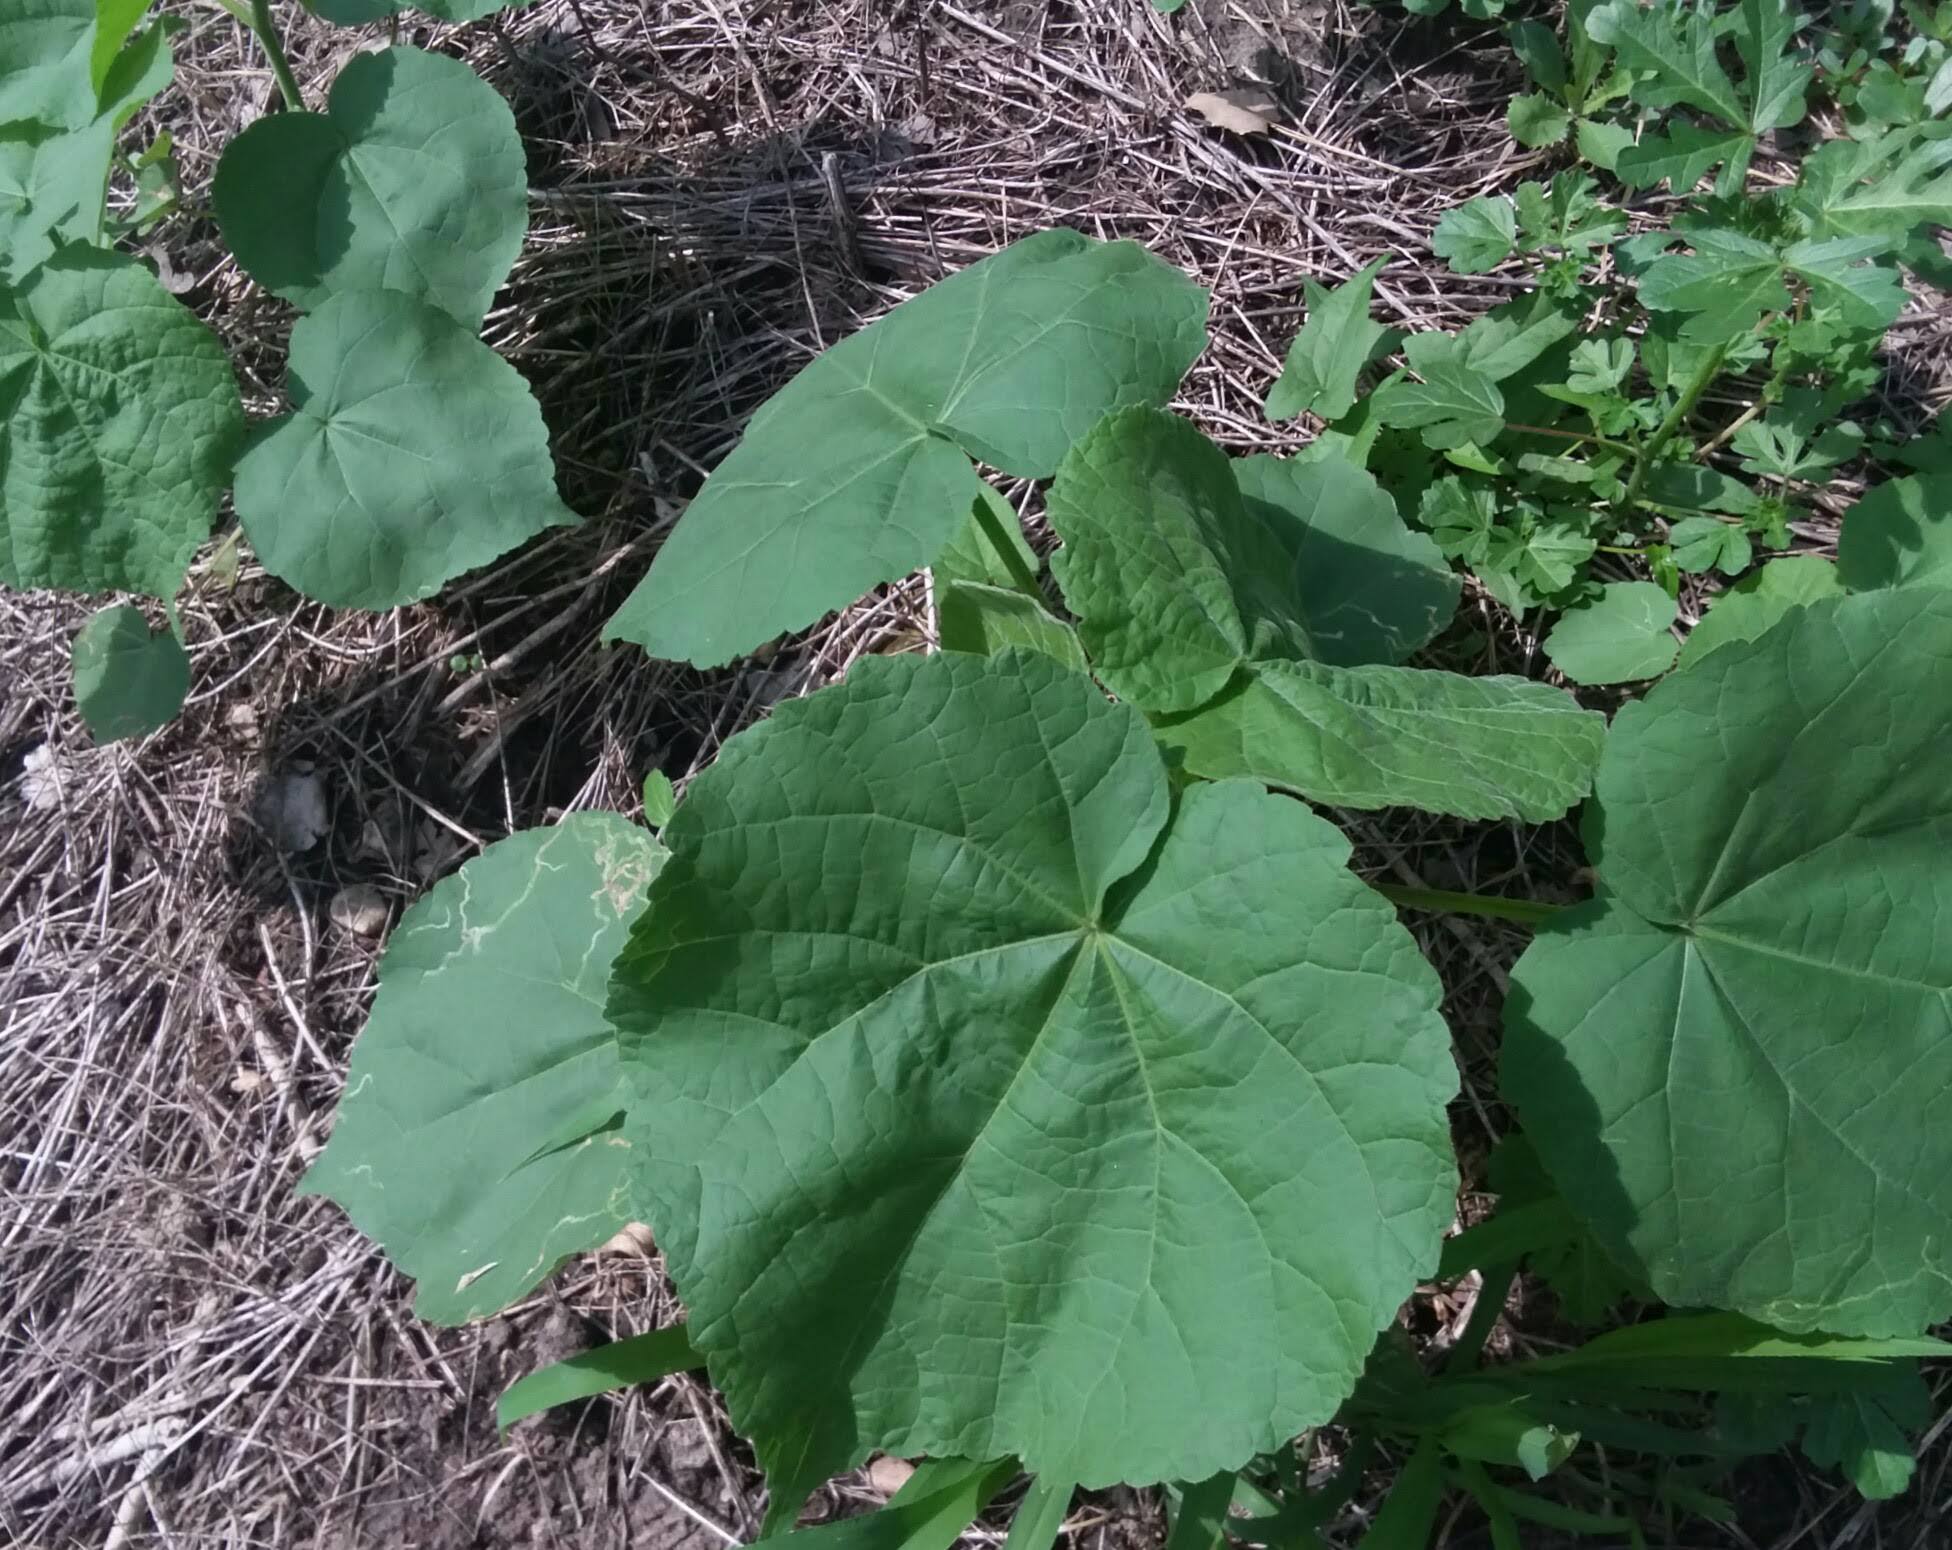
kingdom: Plantae
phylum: Tracheophyta
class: Magnoliopsida
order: Malvales
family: Malvaceae
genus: Abutilon
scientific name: Abutilon theophrasti
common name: Velvetleaf
